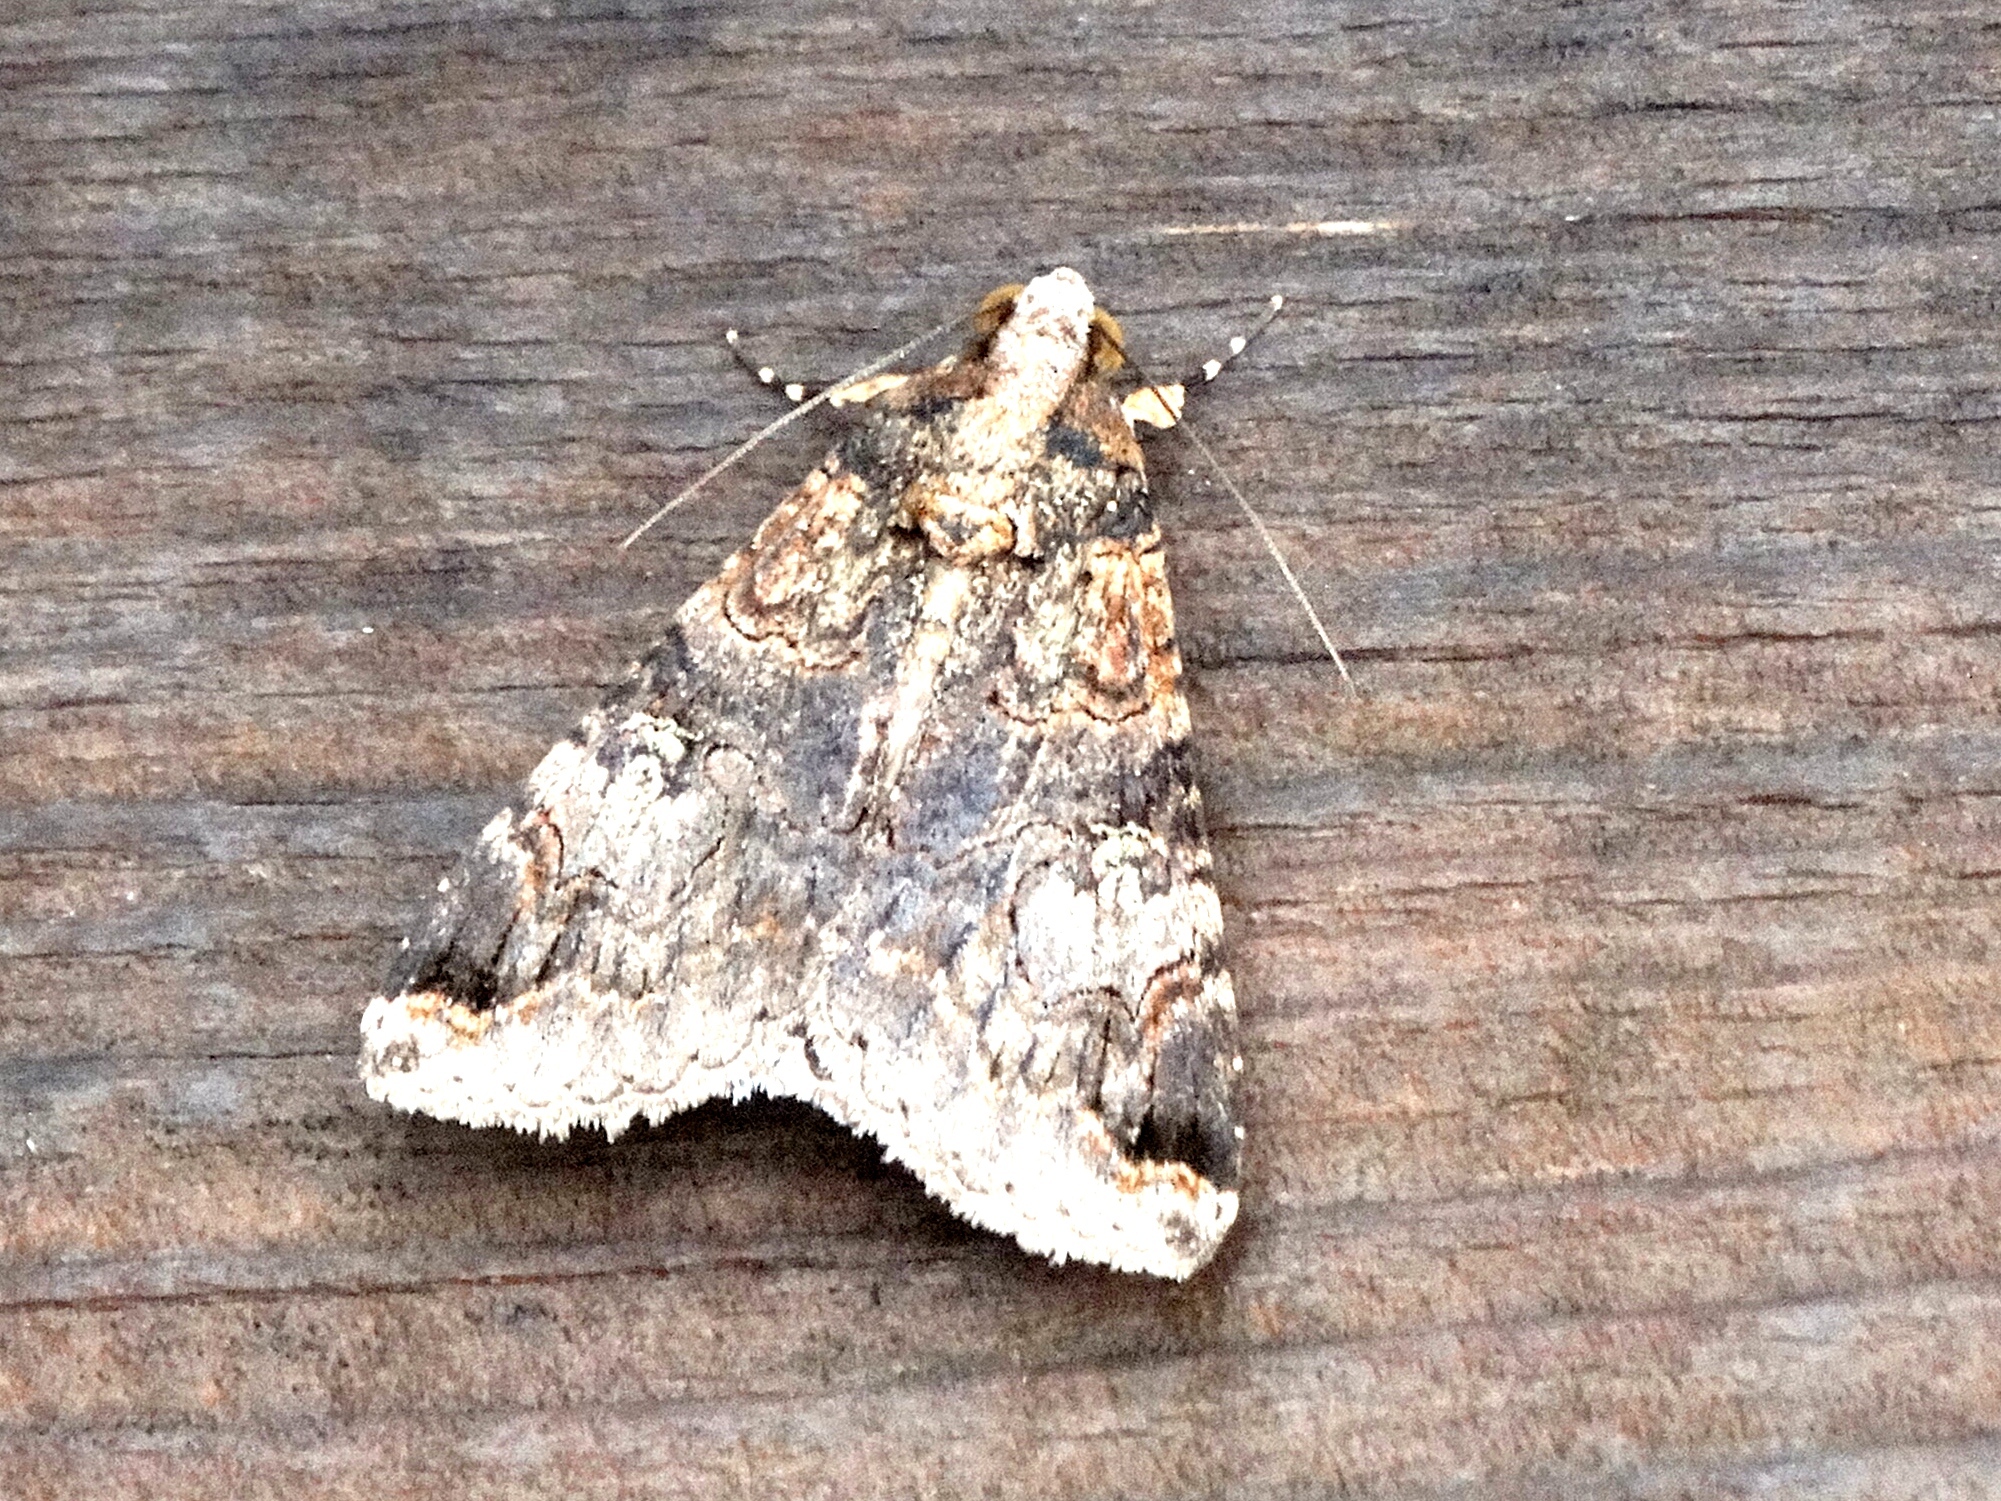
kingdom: Animalia
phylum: Arthropoda
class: Insecta
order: Lepidoptera
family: Erebidae
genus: Melipotis
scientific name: Melipotis famelica
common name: Famelica melipotis moth
